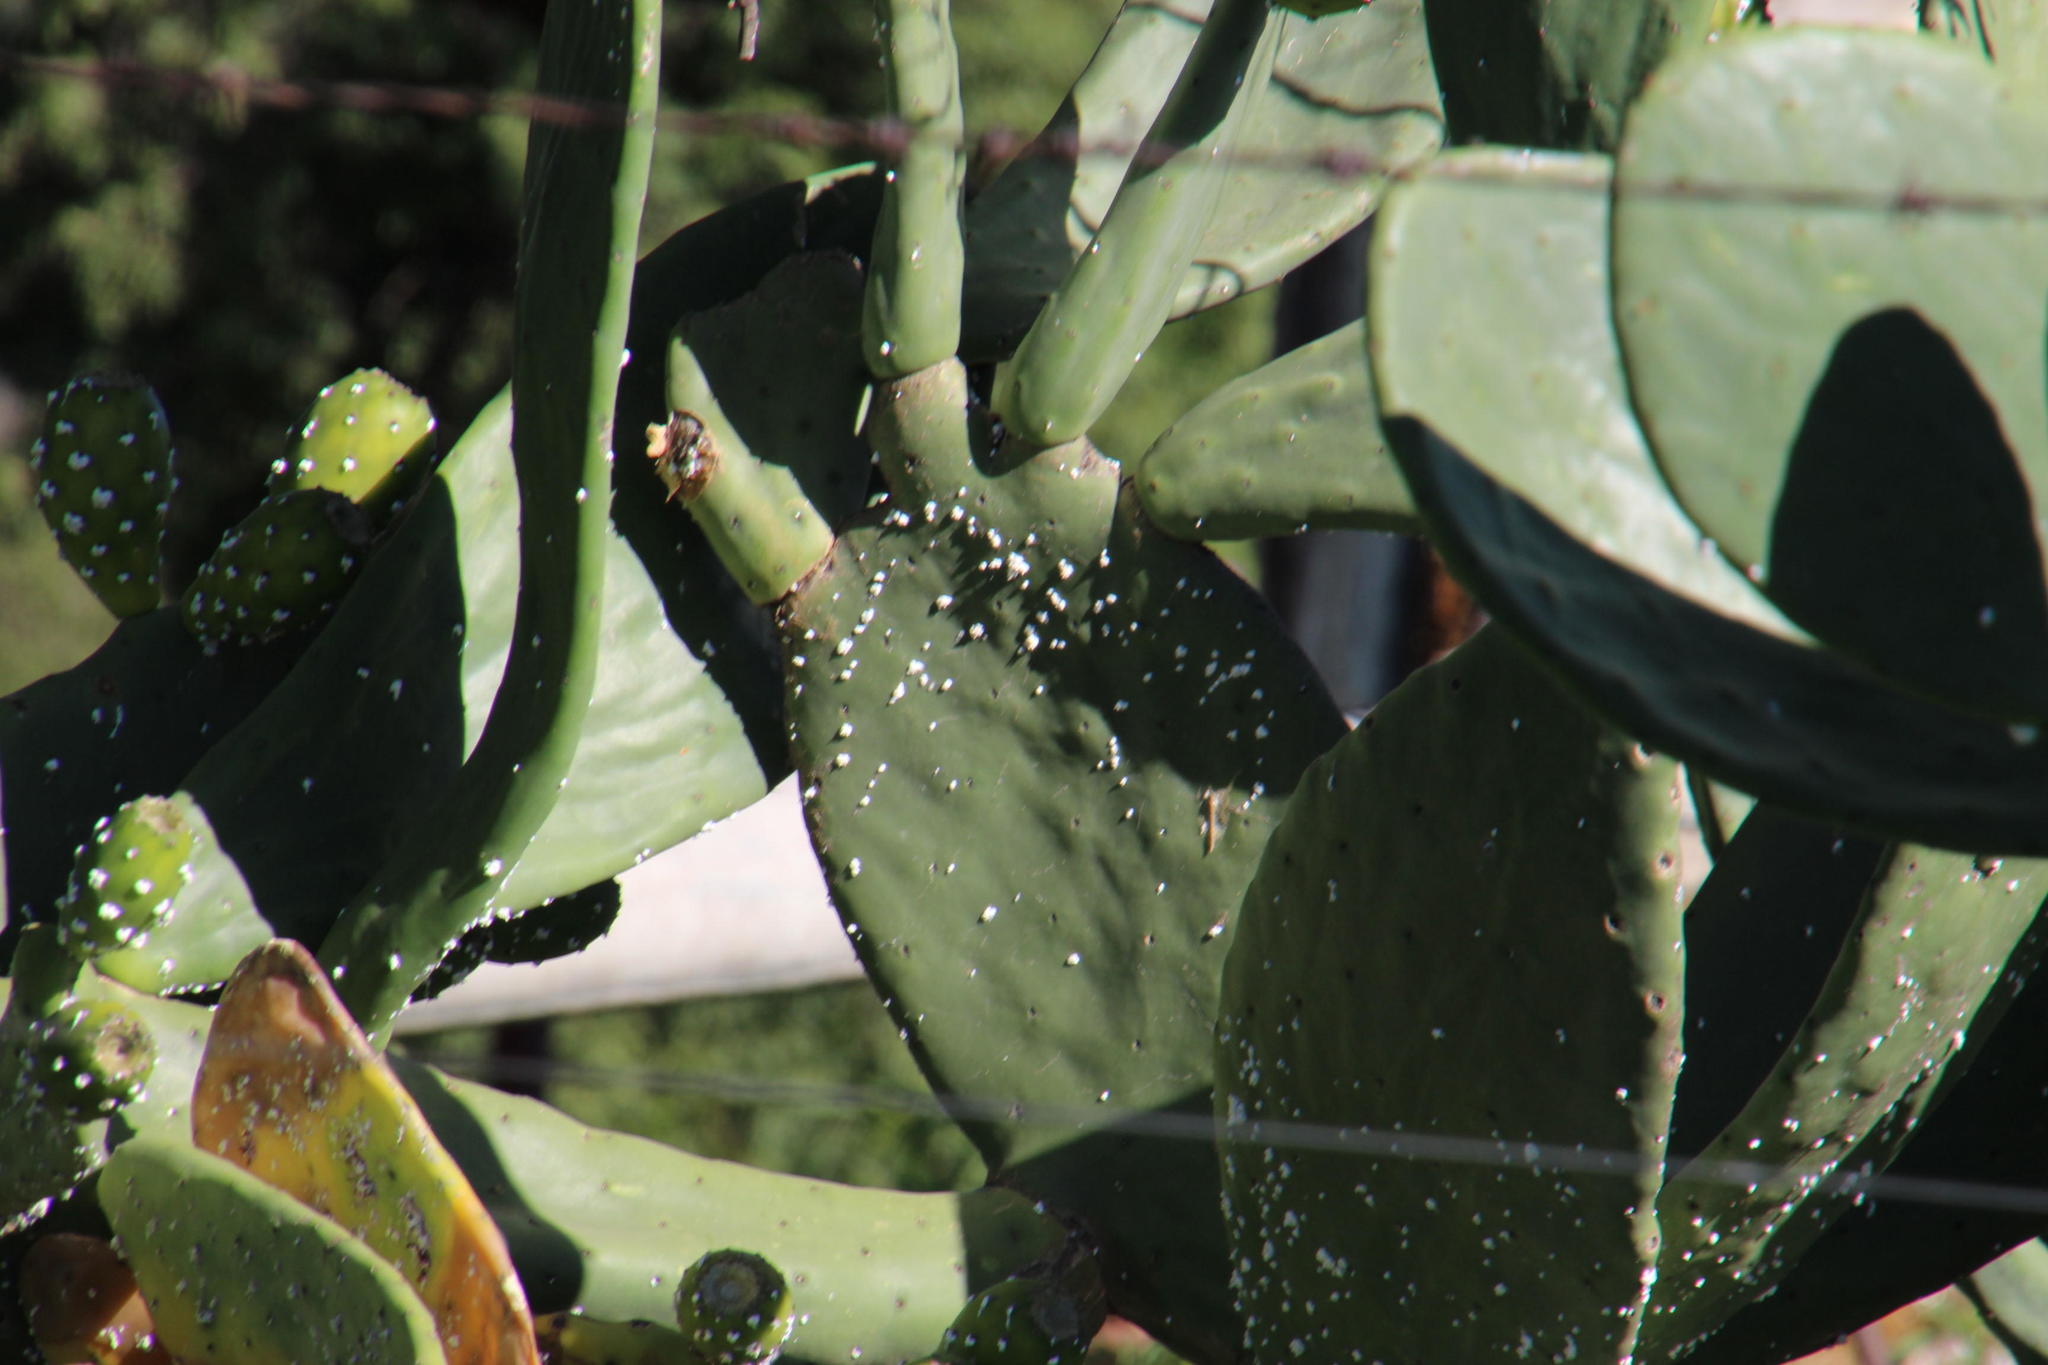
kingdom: Plantae
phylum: Tracheophyta
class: Magnoliopsida
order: Caryophyllales
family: Cactaceae
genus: Opuntia
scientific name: Opuntia ficus-indica
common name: Barbary fig
